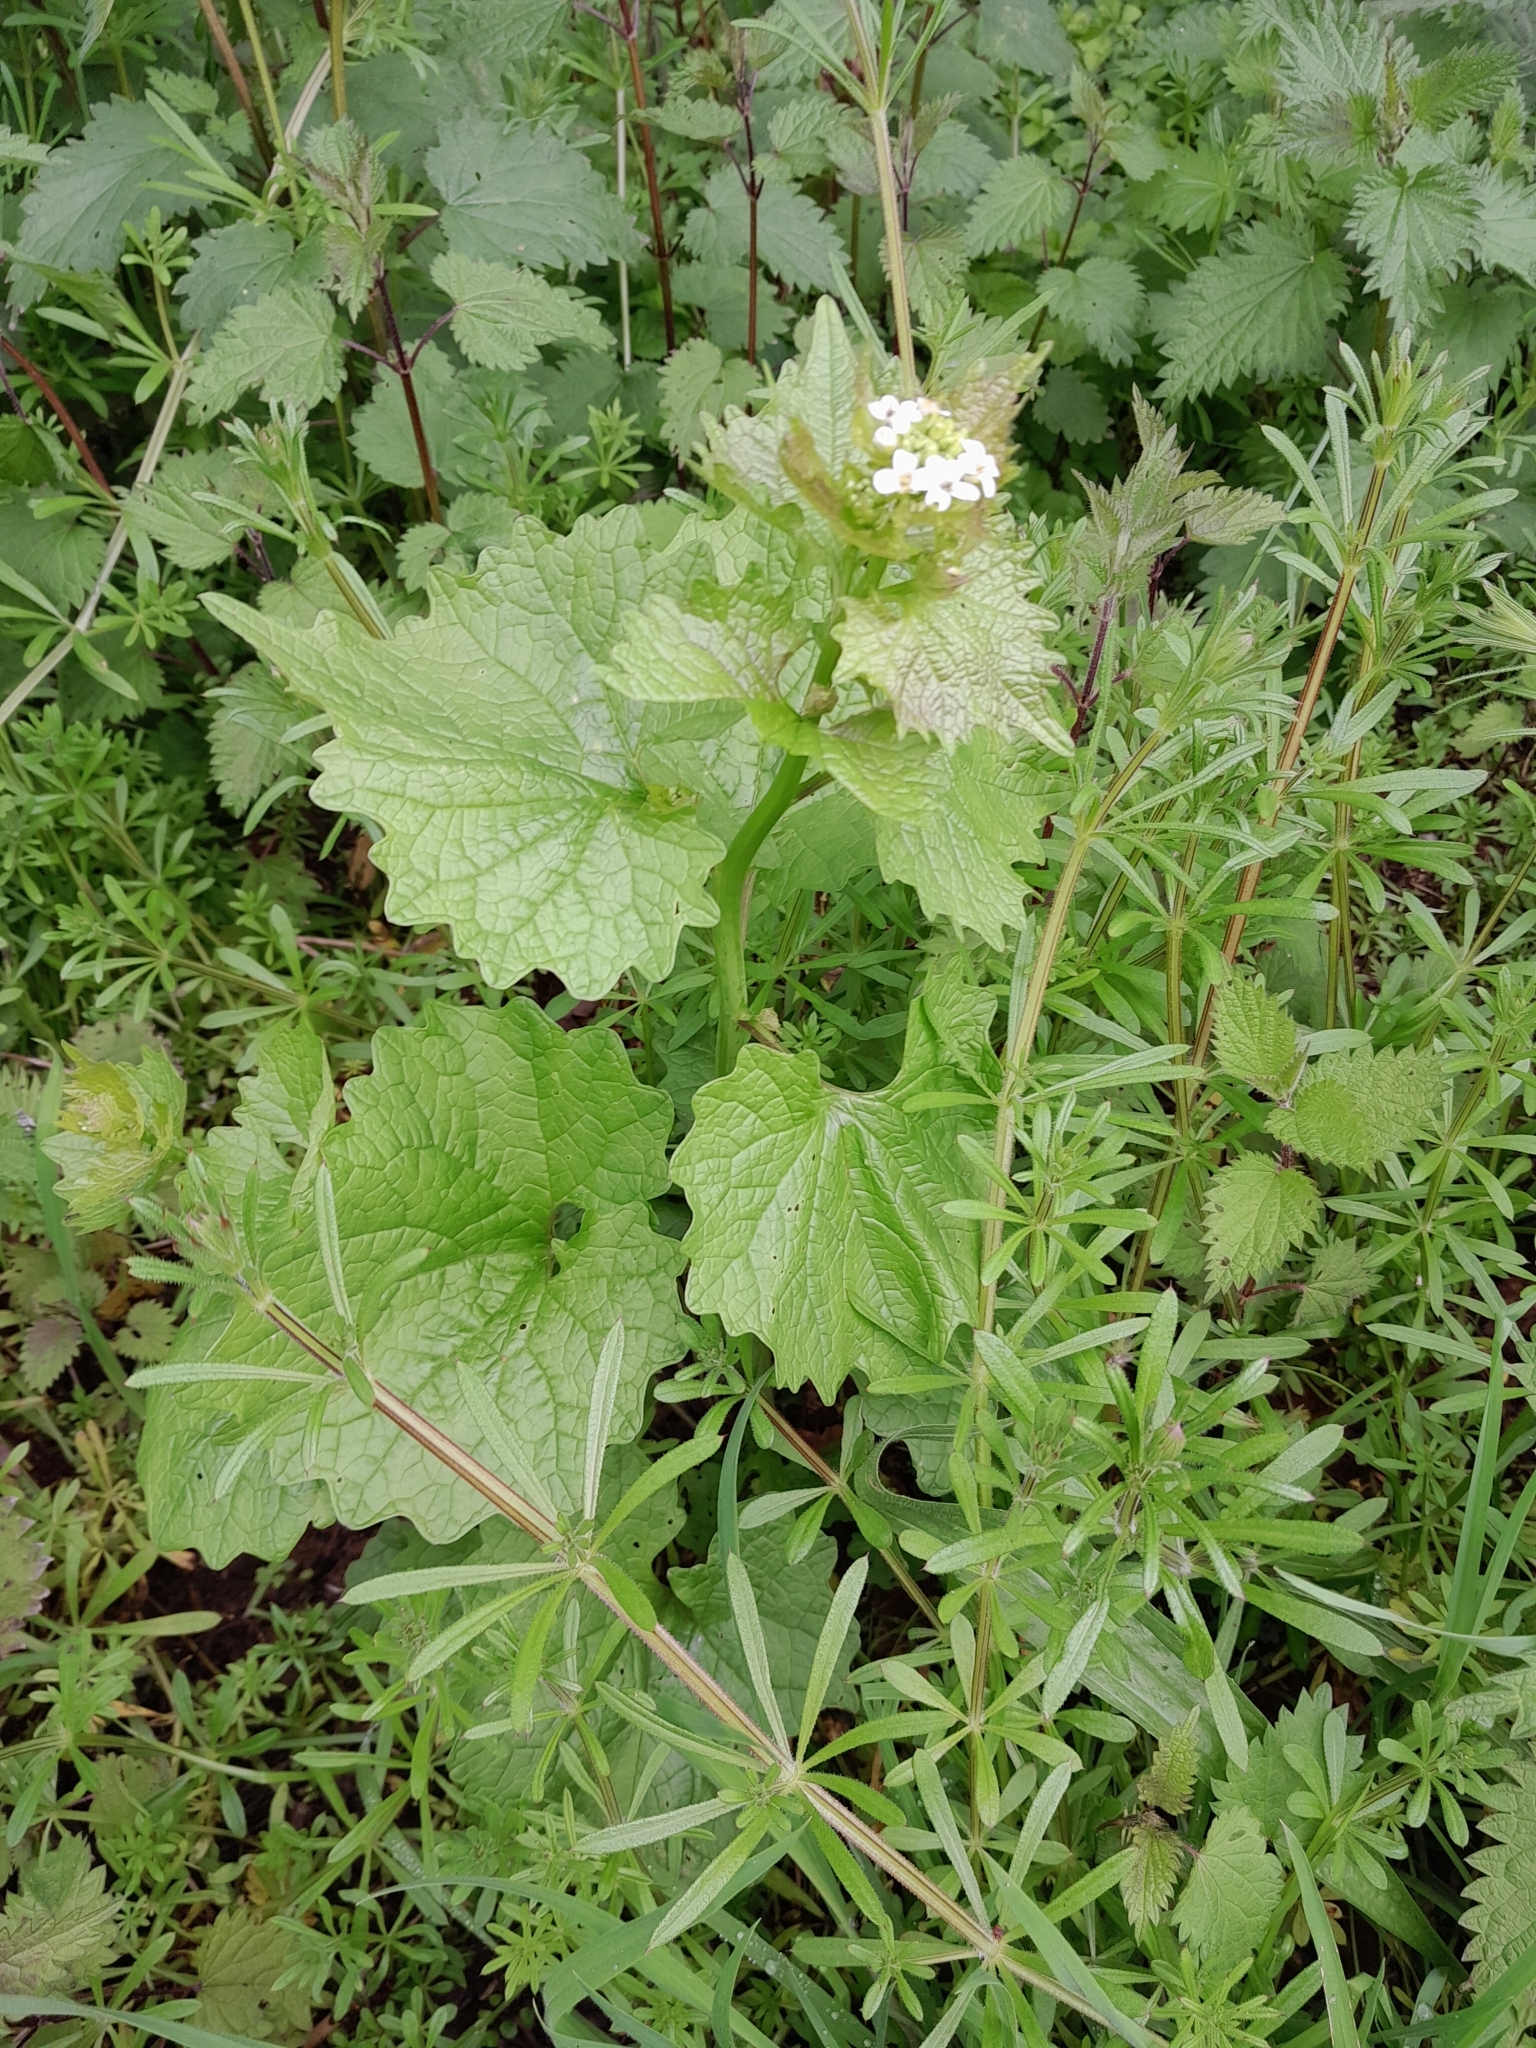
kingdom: Plantae
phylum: Tracheophyta
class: Magnoliopsida
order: Brassicales
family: Brassicaceae
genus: Alliaria
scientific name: Alliaria petiolata
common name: Garlic mustard
